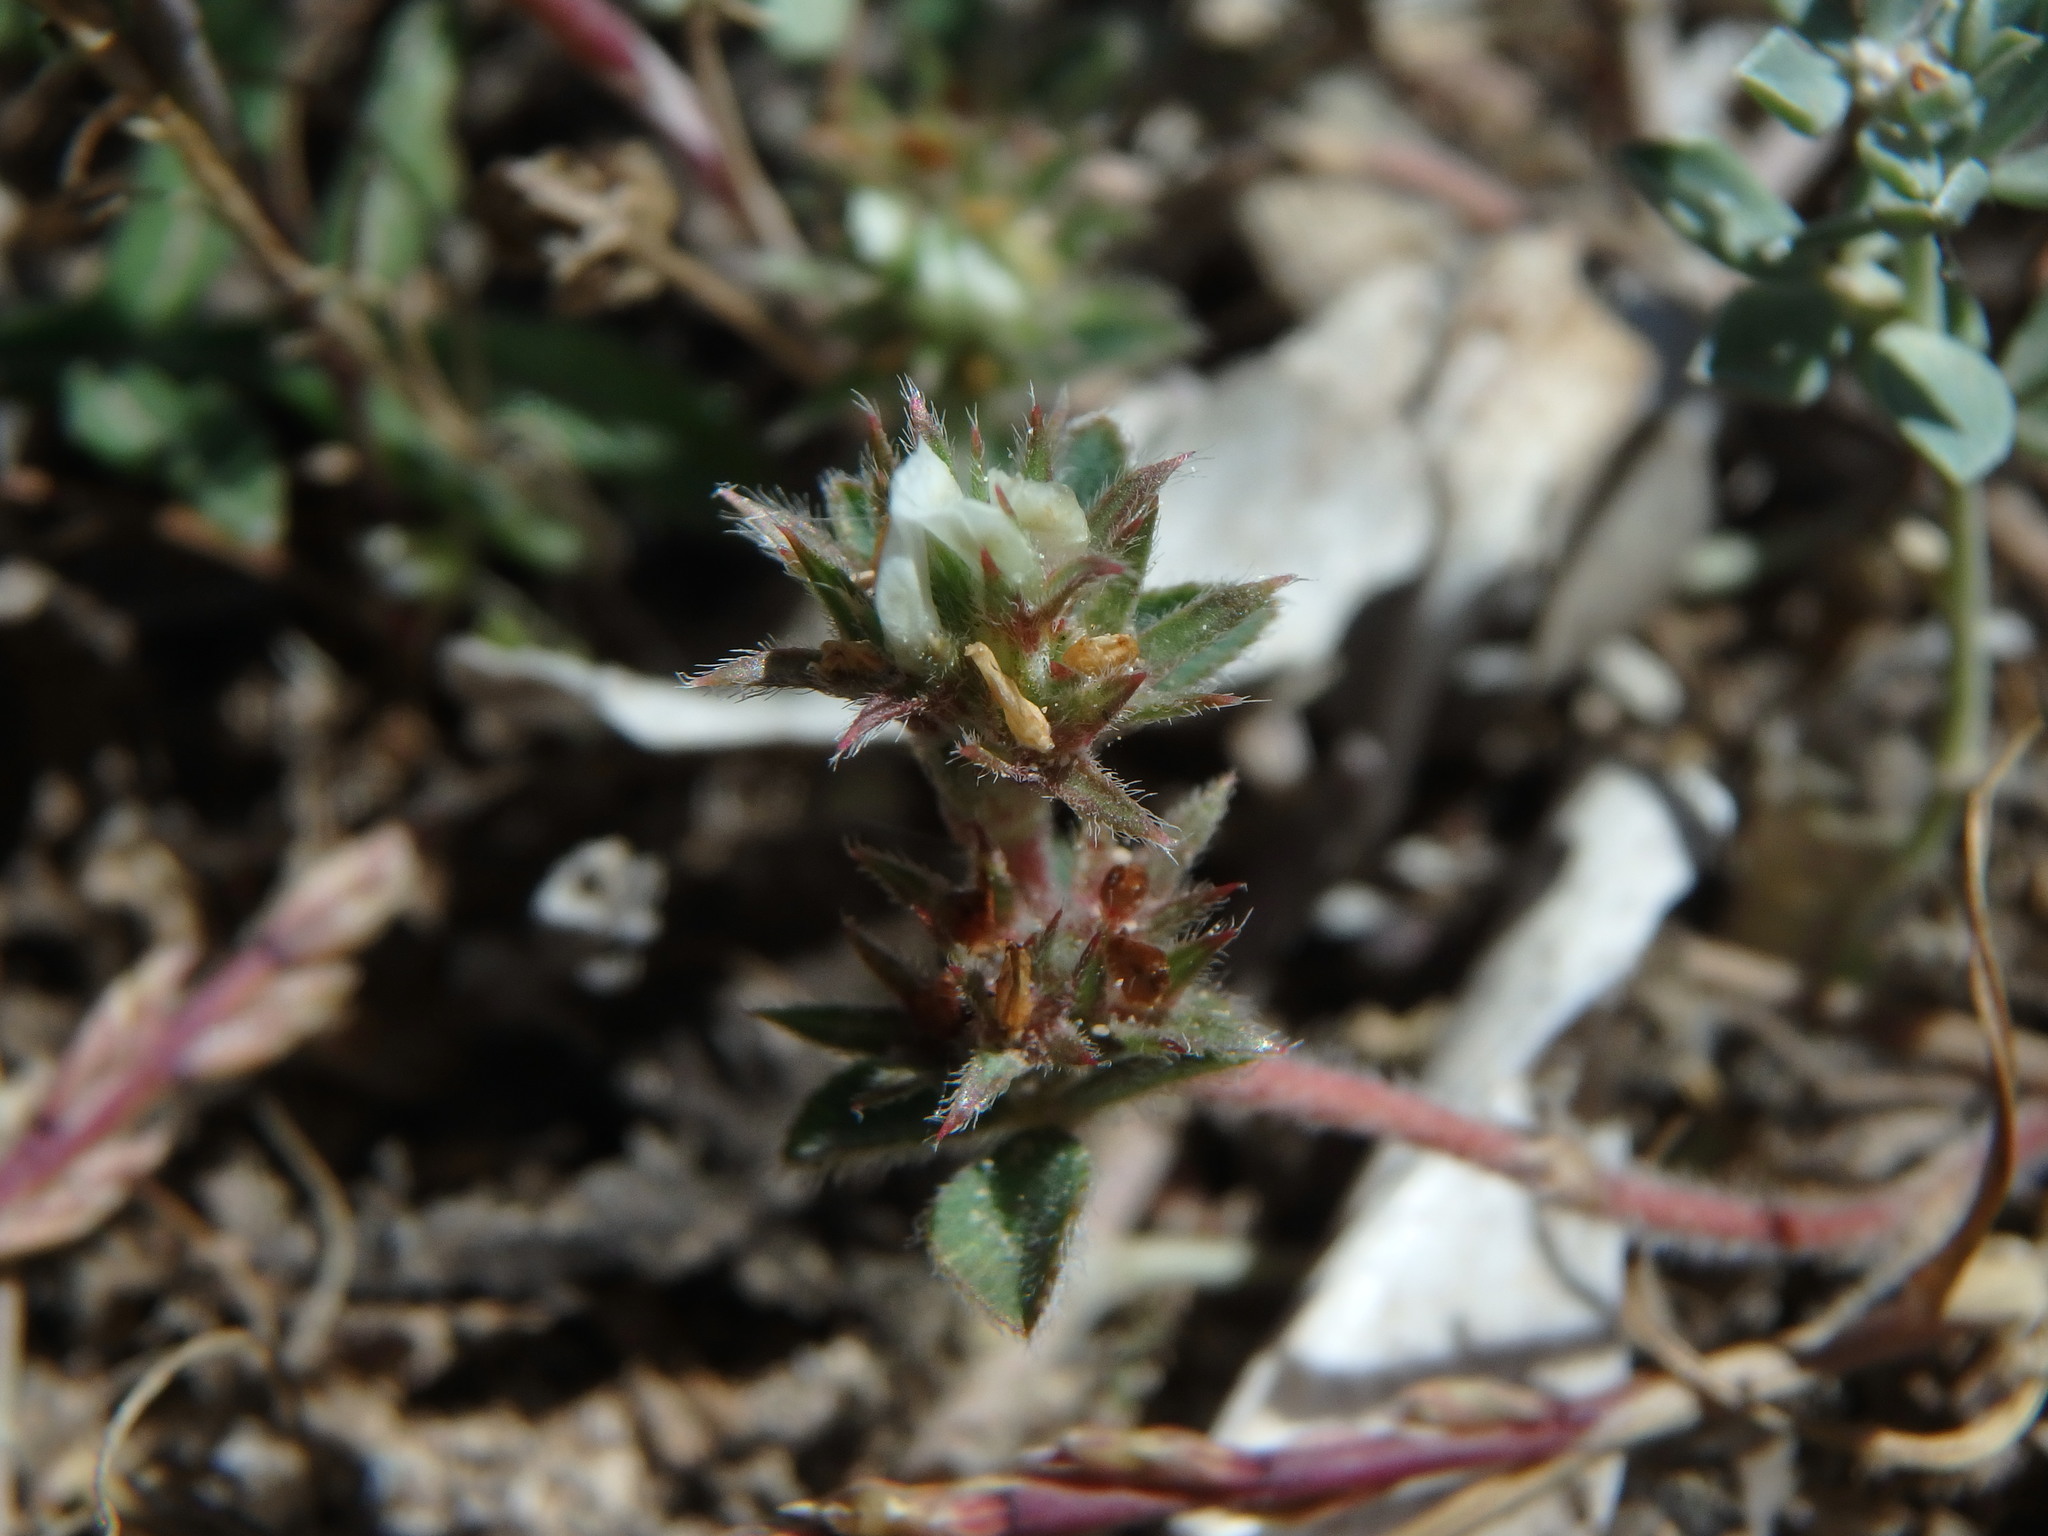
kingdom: Plantae
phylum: Tracheophyta
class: Magnoliopsida
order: Fabales
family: Fabaceae
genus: Trifolium
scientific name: Trifolium scabrum
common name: Rough clover
